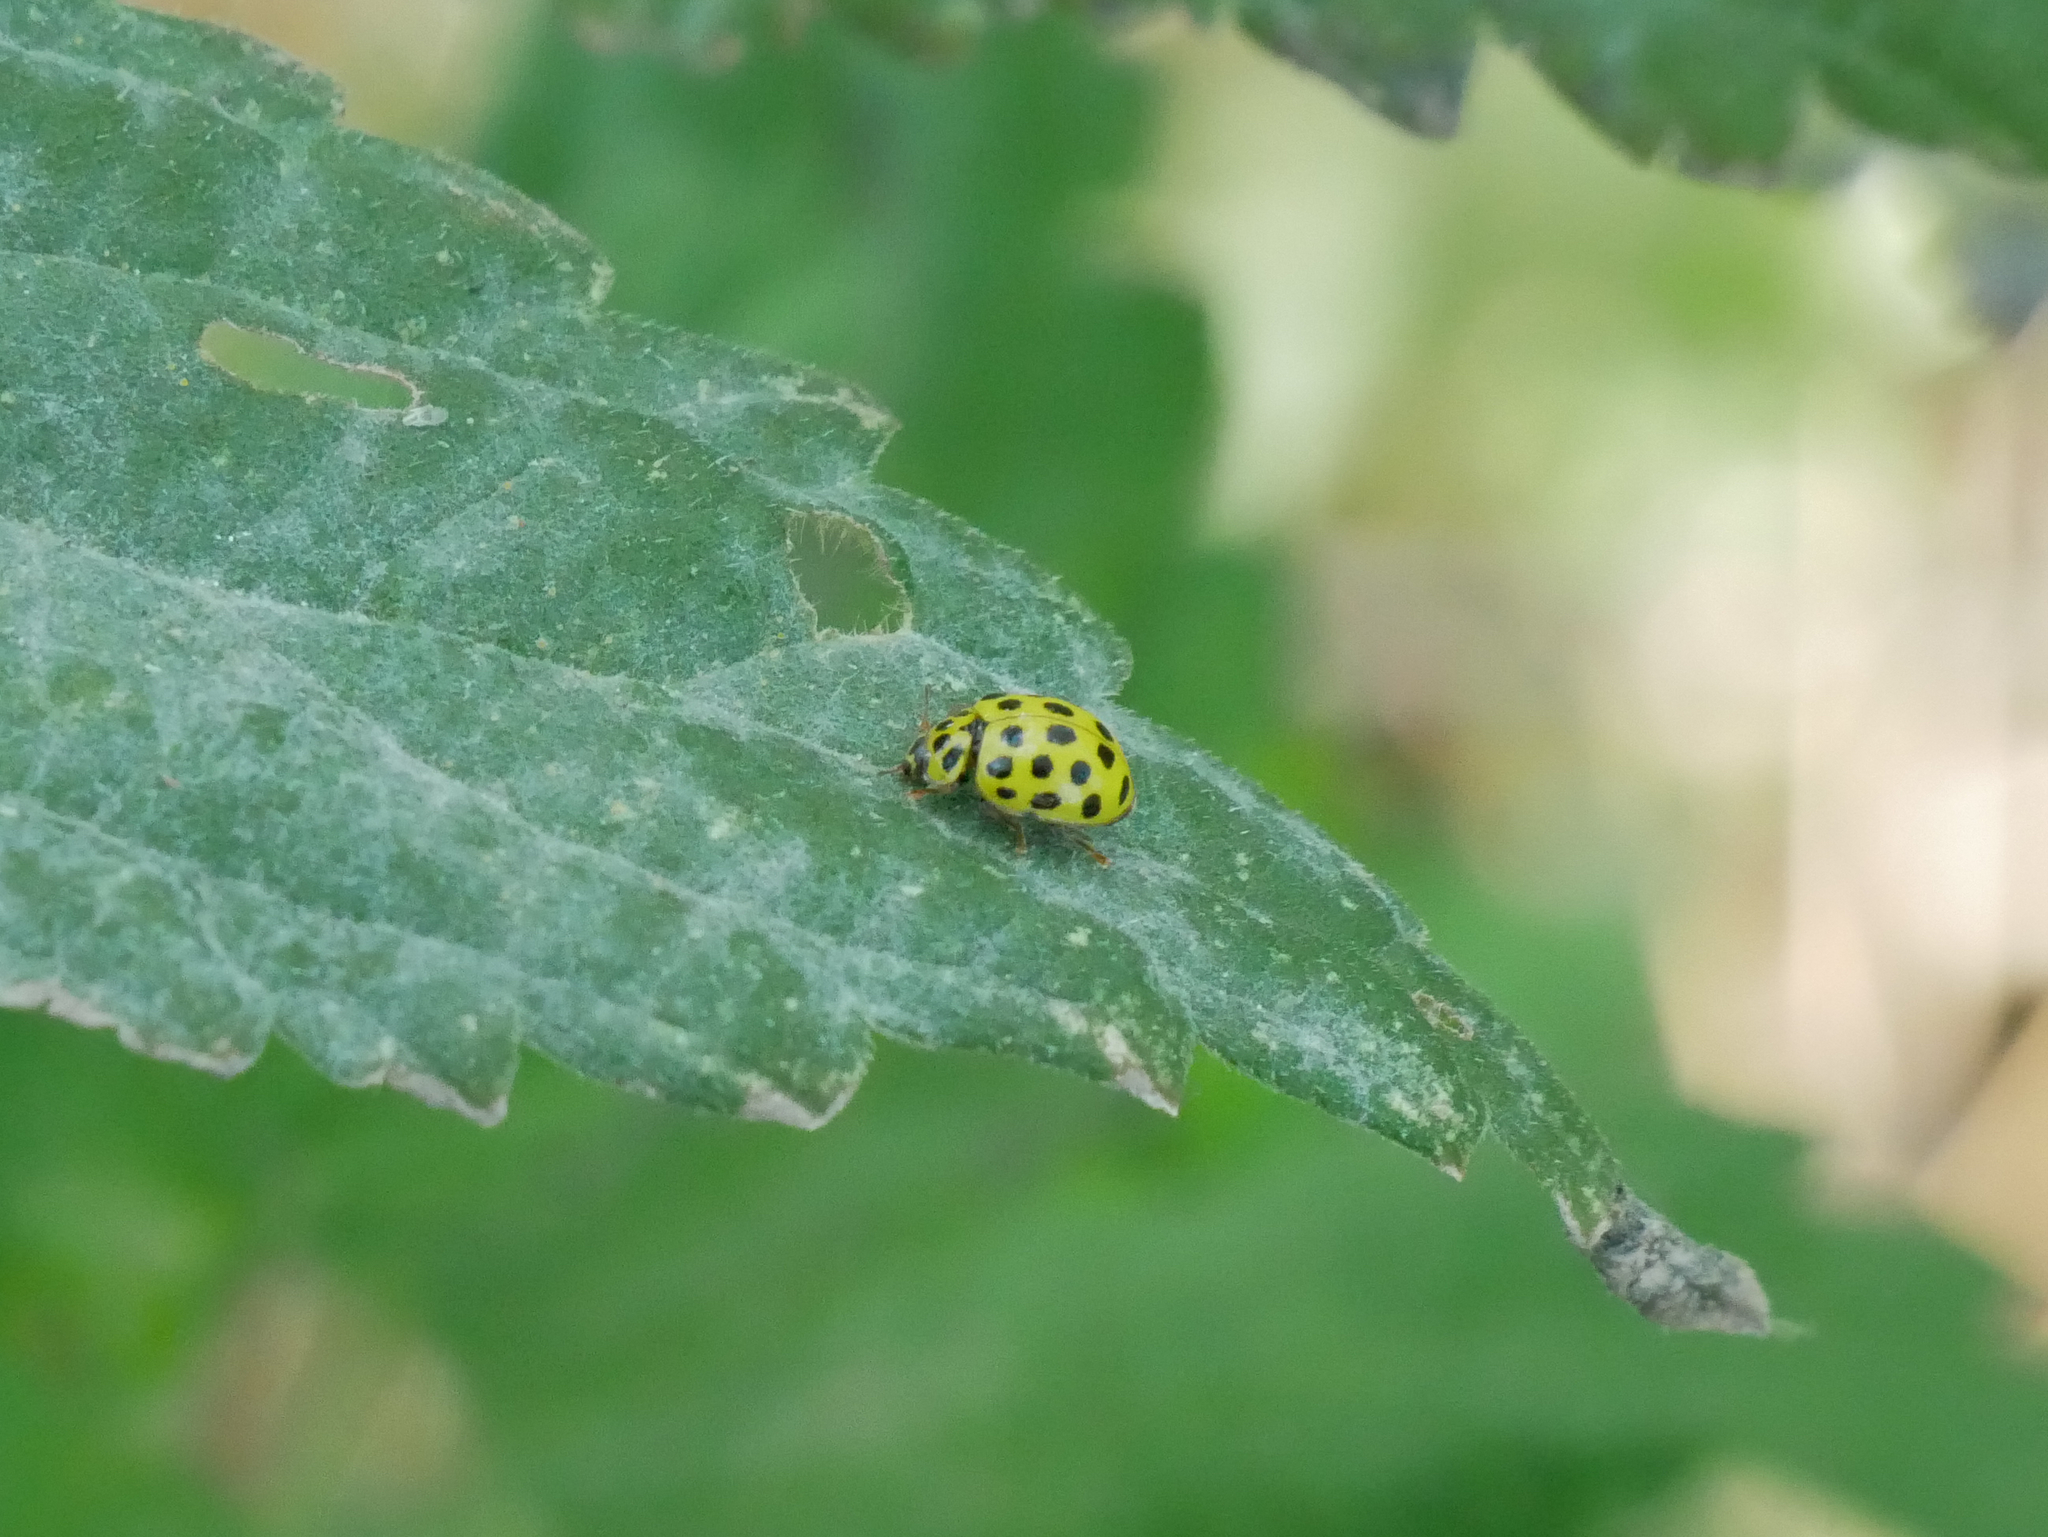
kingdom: Animalia
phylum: Arthropoda
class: Insecta
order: Coleoptera
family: Coccinellidae
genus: Psyllobora
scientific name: Psyllobora vigintiduopunctata
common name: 22-spot ladybird
